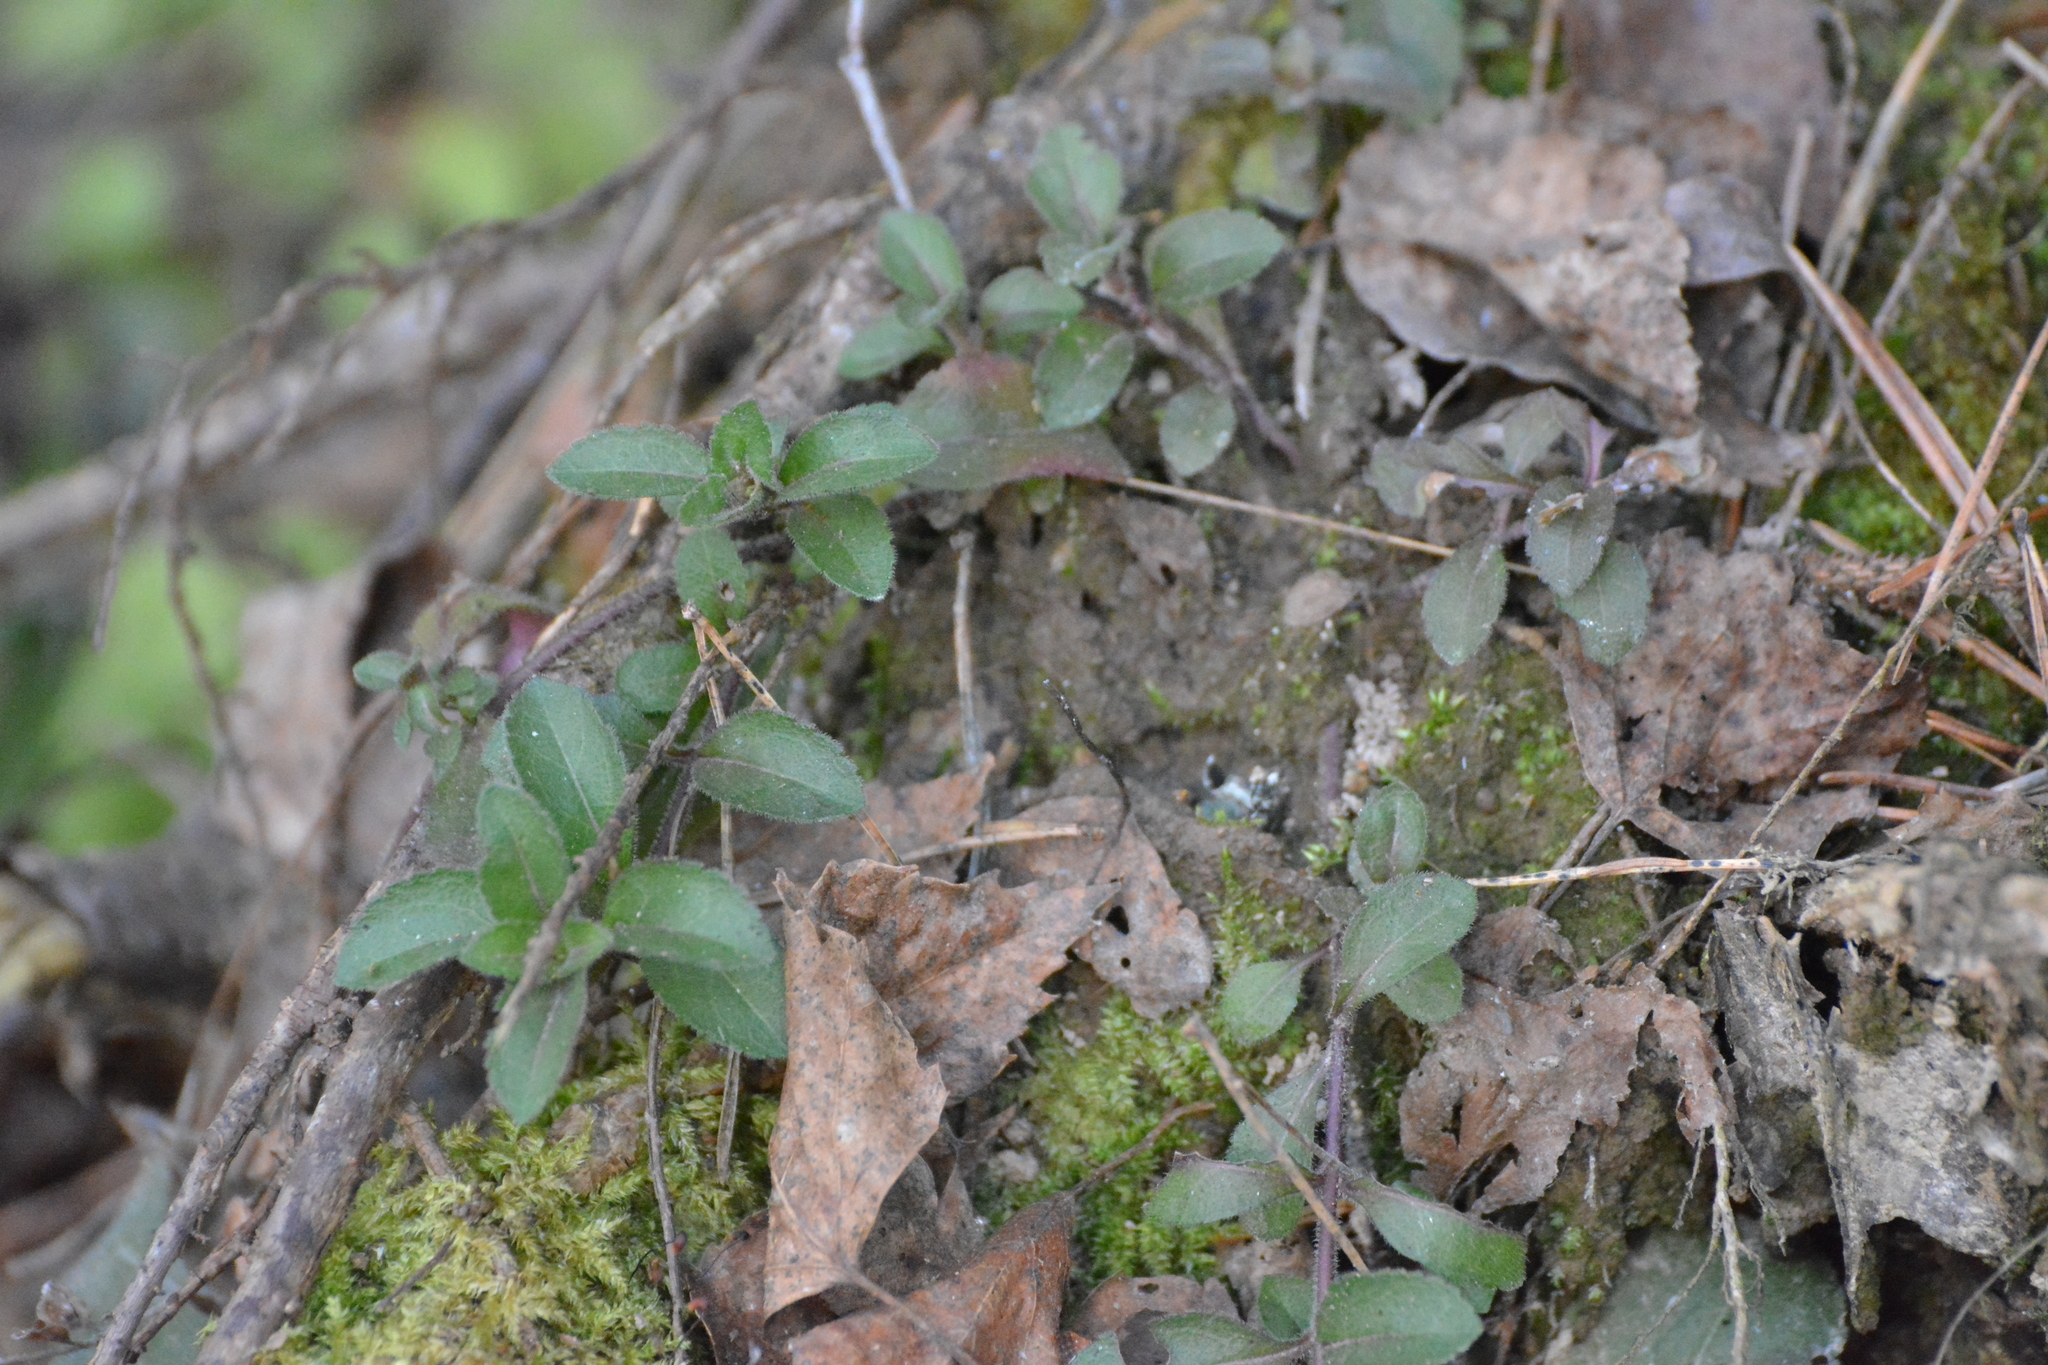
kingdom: Plantae
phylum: Tracheophyta
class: Magnoliopsida
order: Lamiales
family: Plantaginaceae
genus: Veronica
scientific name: Veronica officinalis
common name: Common speedwell
